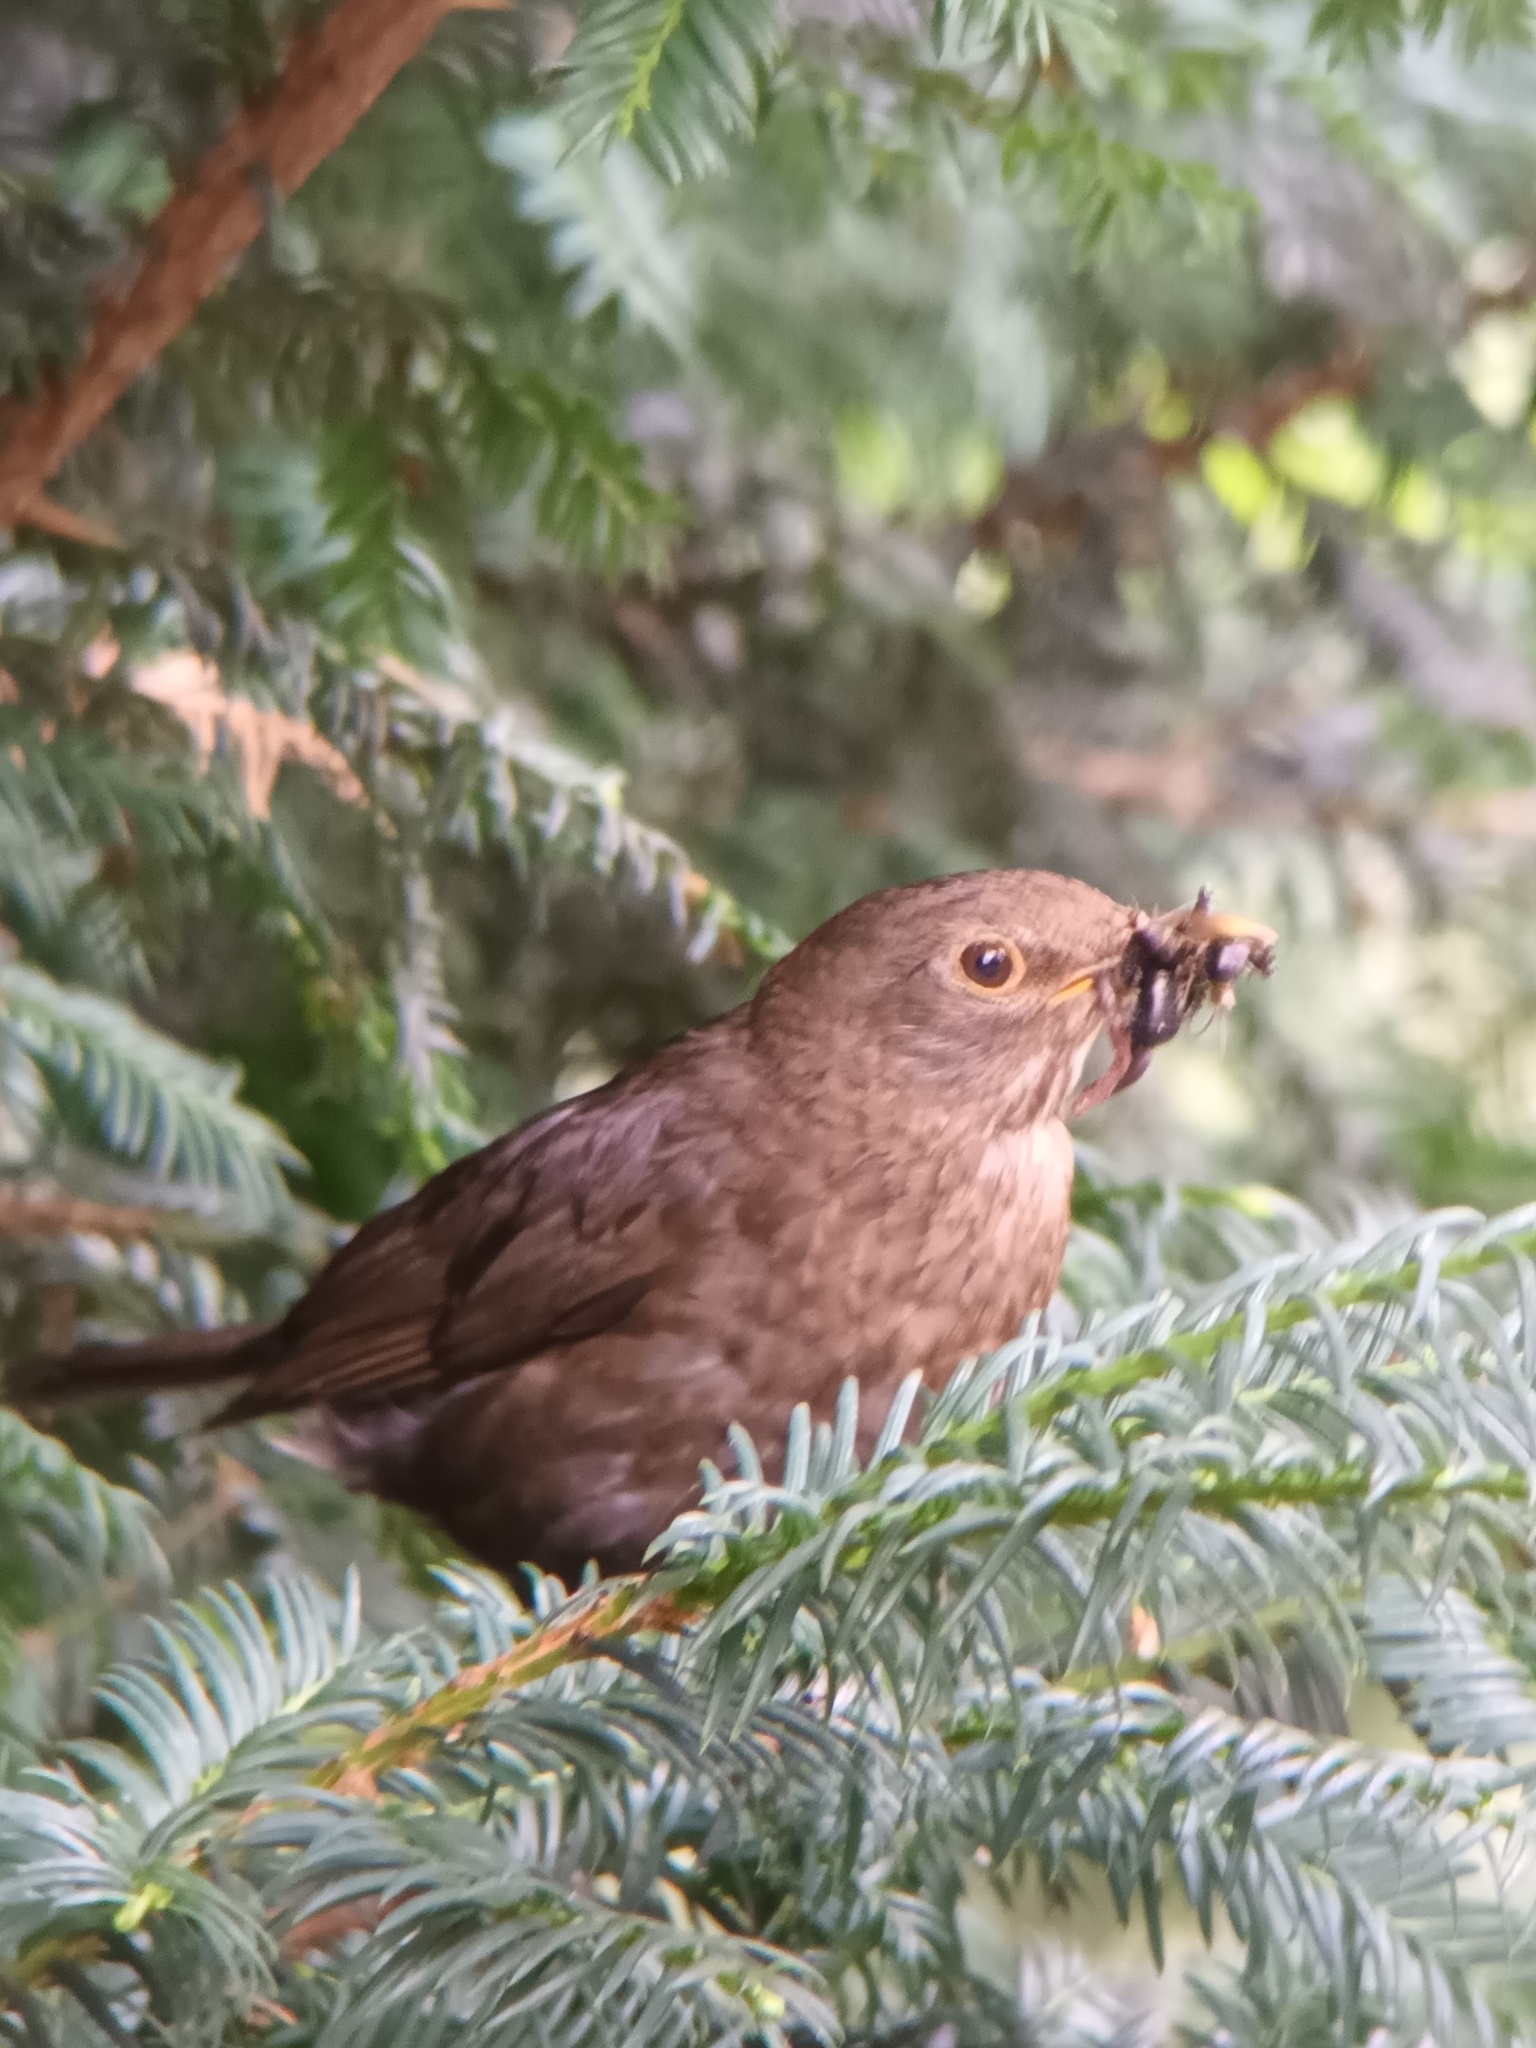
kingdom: Animalia
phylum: Chordata
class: Aves
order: Passeriformes
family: Turdidae
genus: Turdus
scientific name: Turdus merula
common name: Common blackbird
